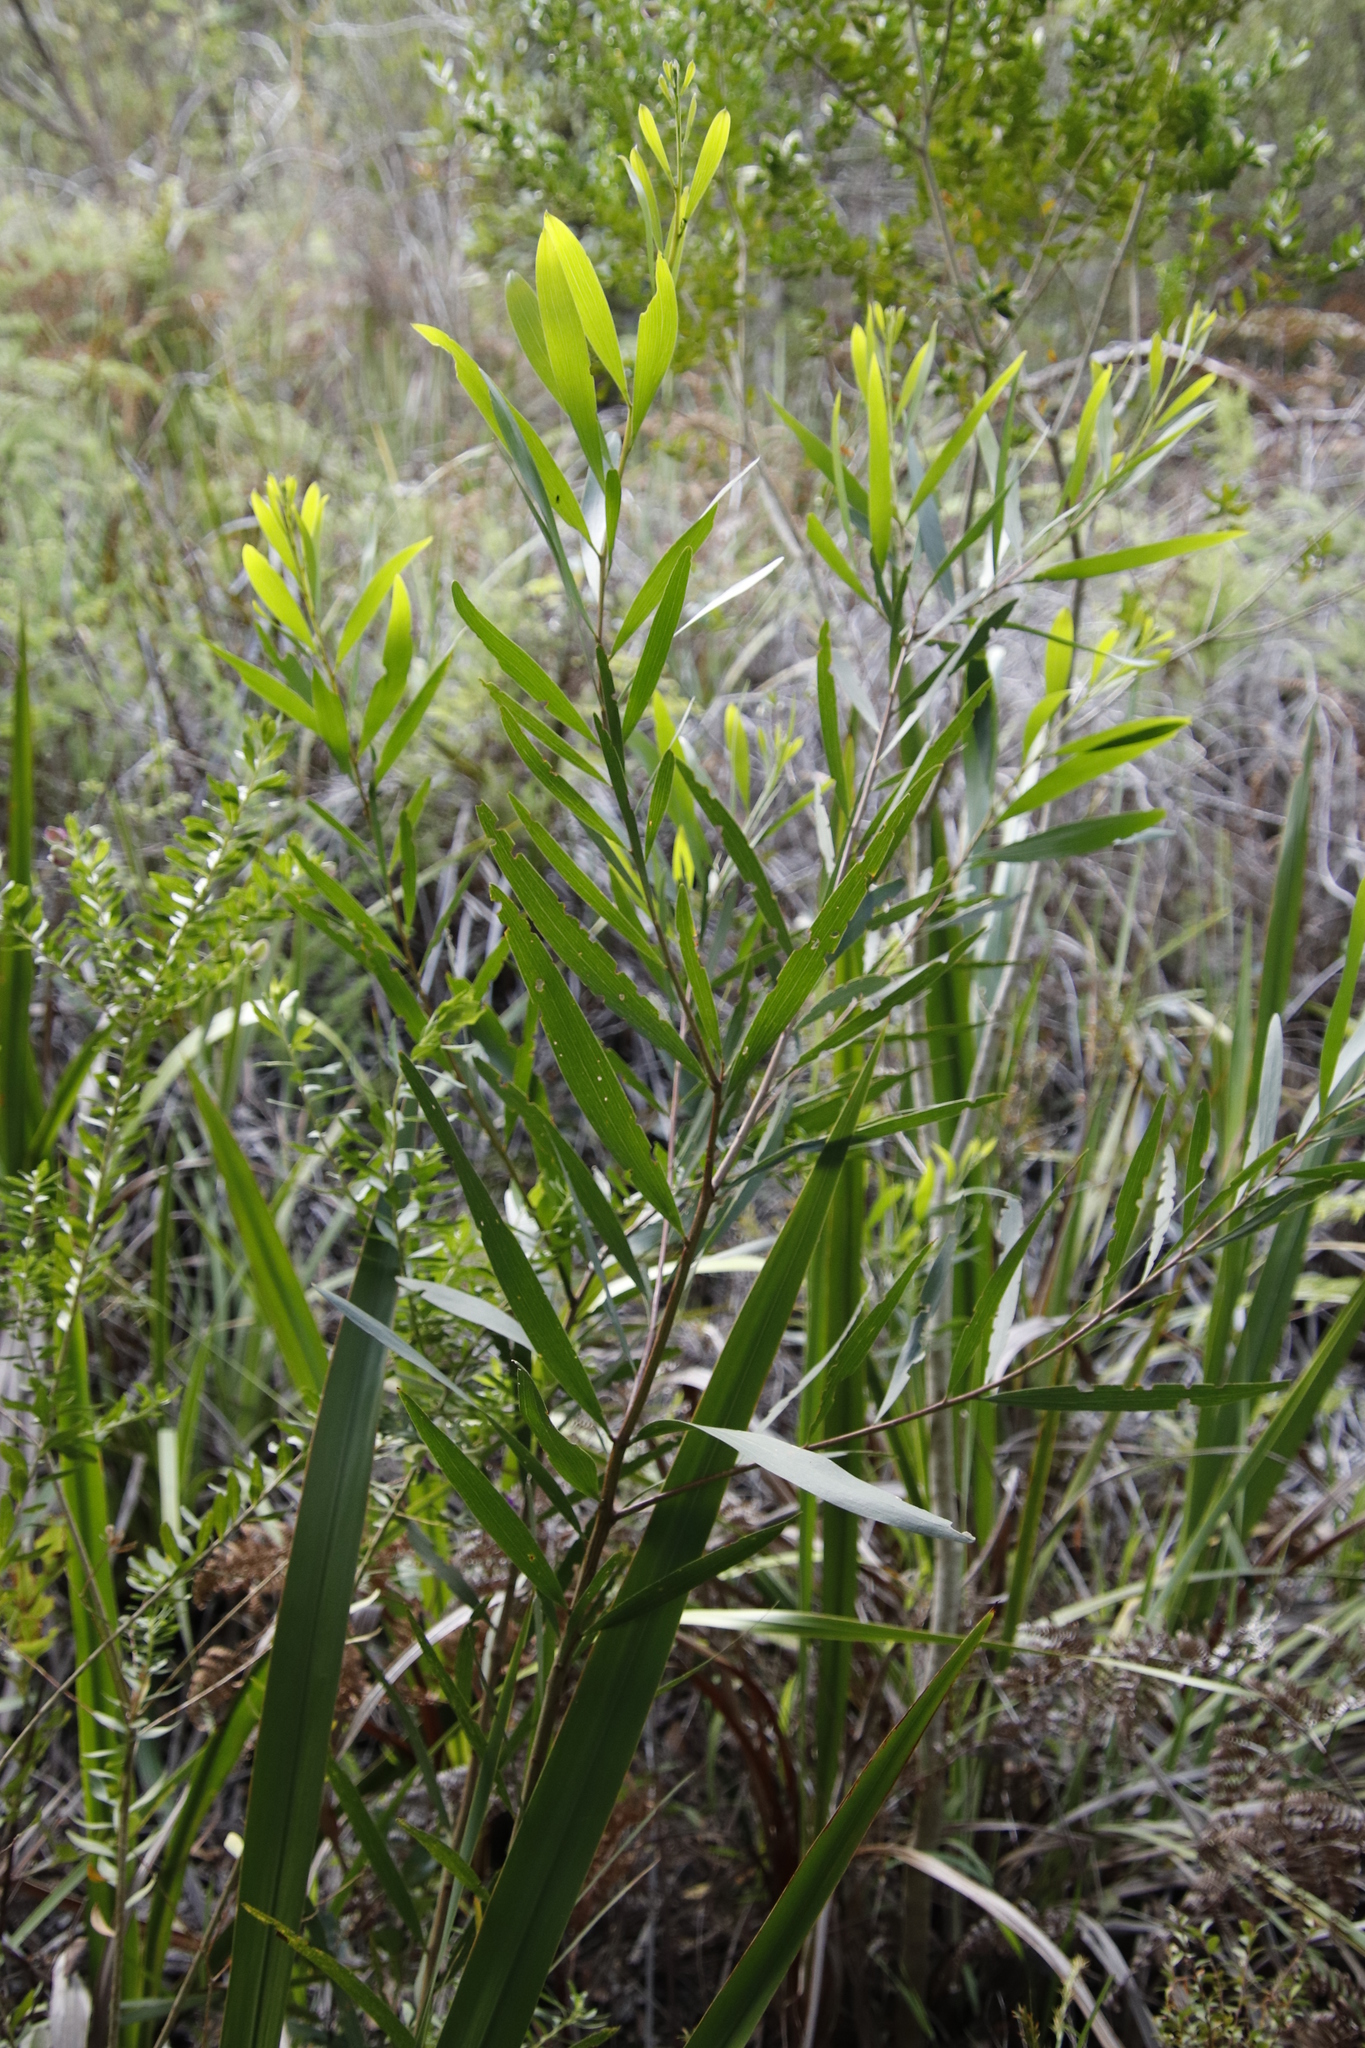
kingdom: Plantae
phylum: Tracheophyta
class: Magnoliopsida
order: Fabales
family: Fabaceae
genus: Acacia
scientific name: Acacia longifolia
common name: Sydney golden wattle
